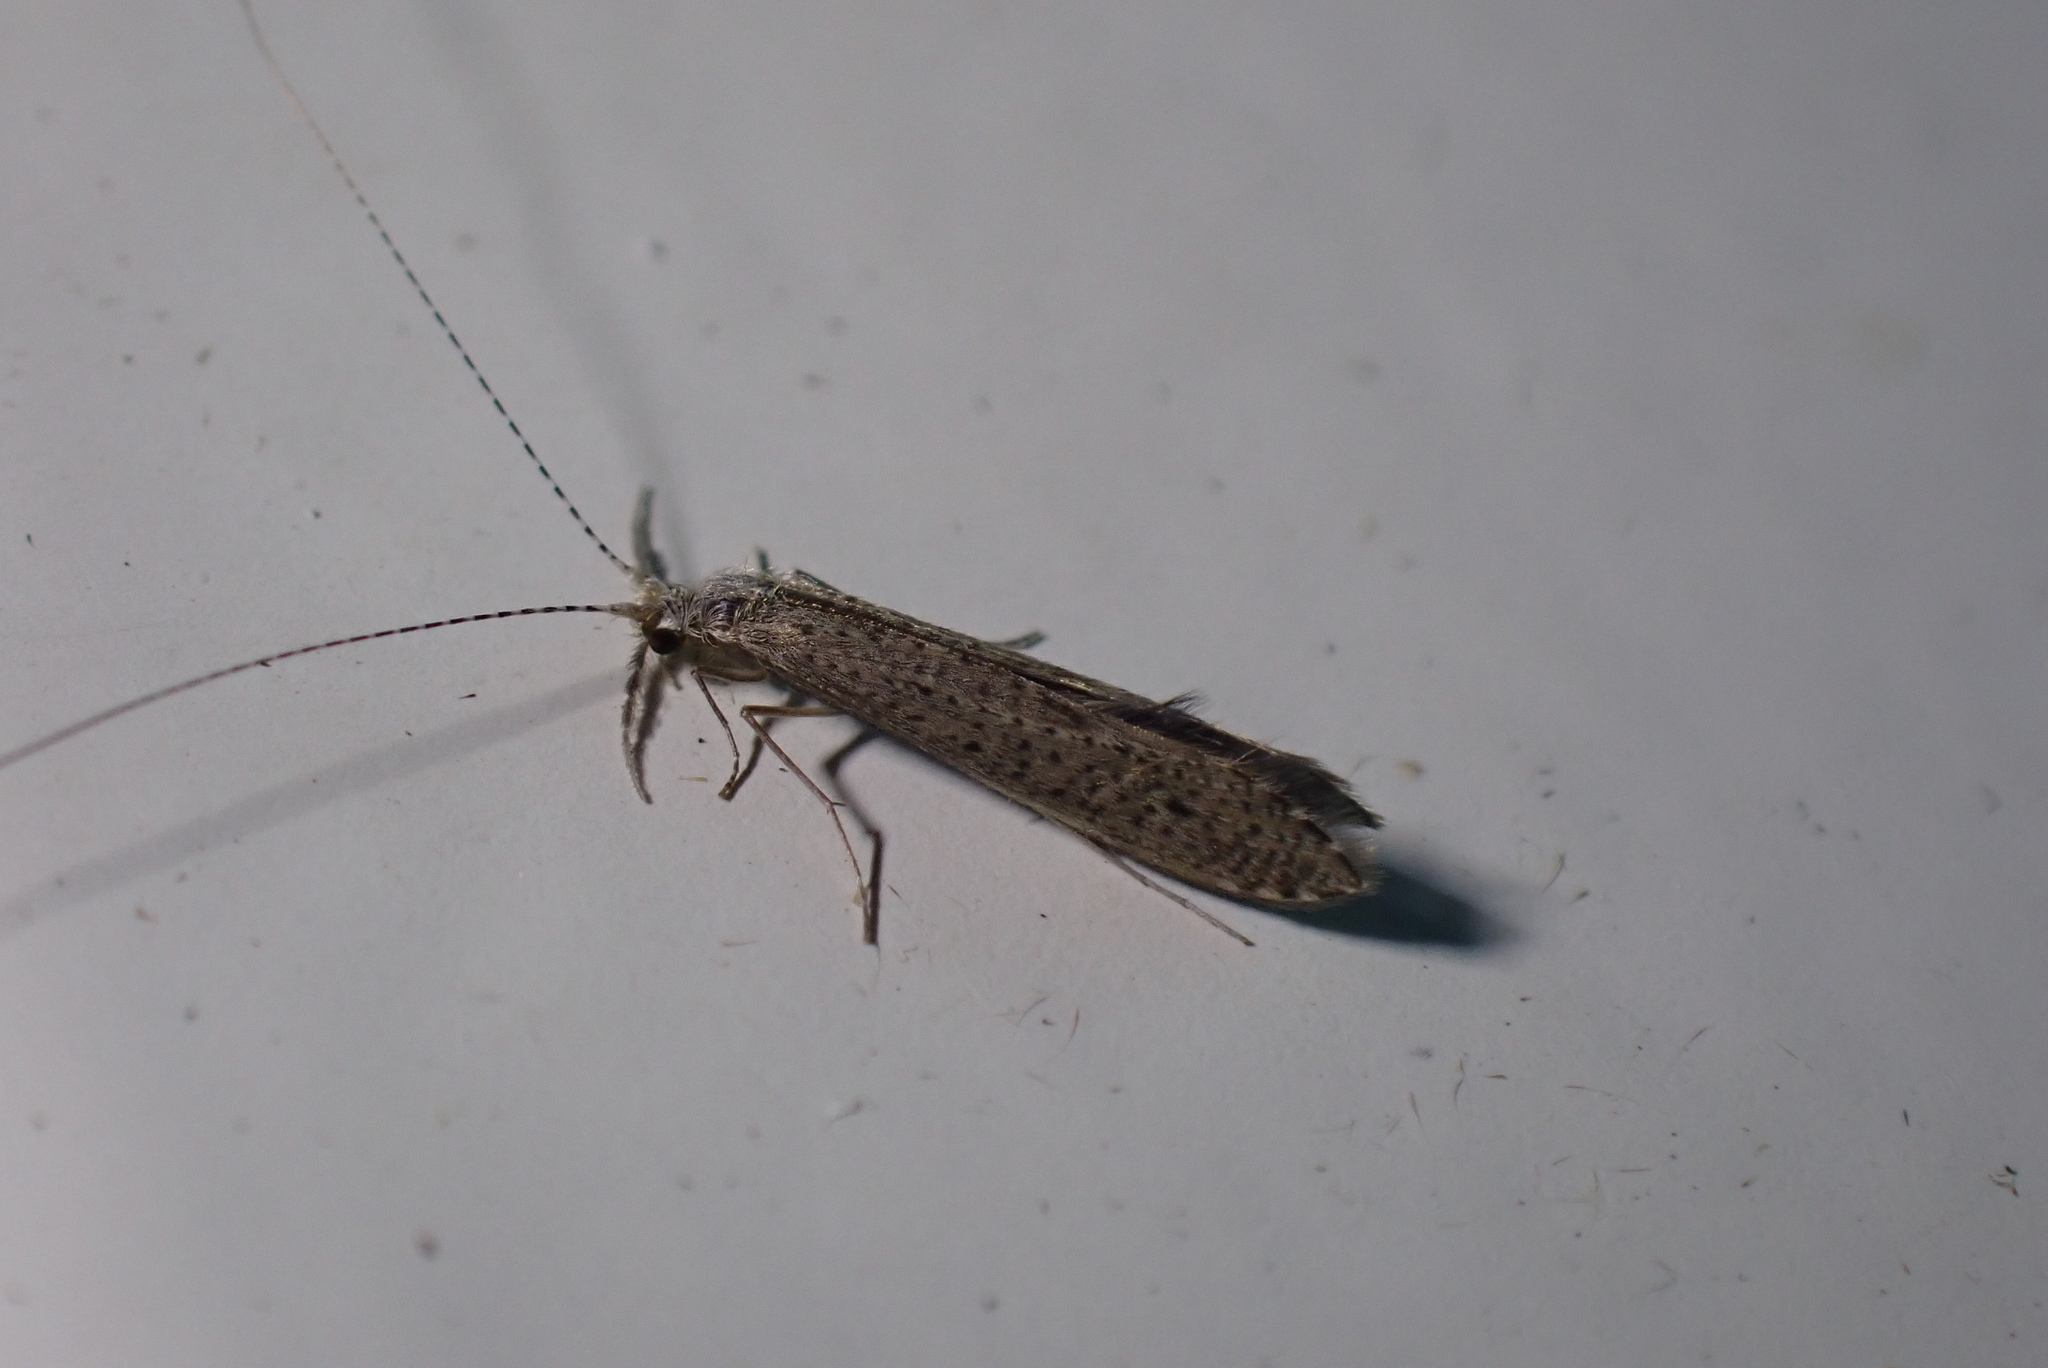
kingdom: Animalia
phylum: Arthropoda
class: Insecta
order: Trichoptera
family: Leptoceridae
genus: Leptocerus
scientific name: Leptocerus tineiformis
